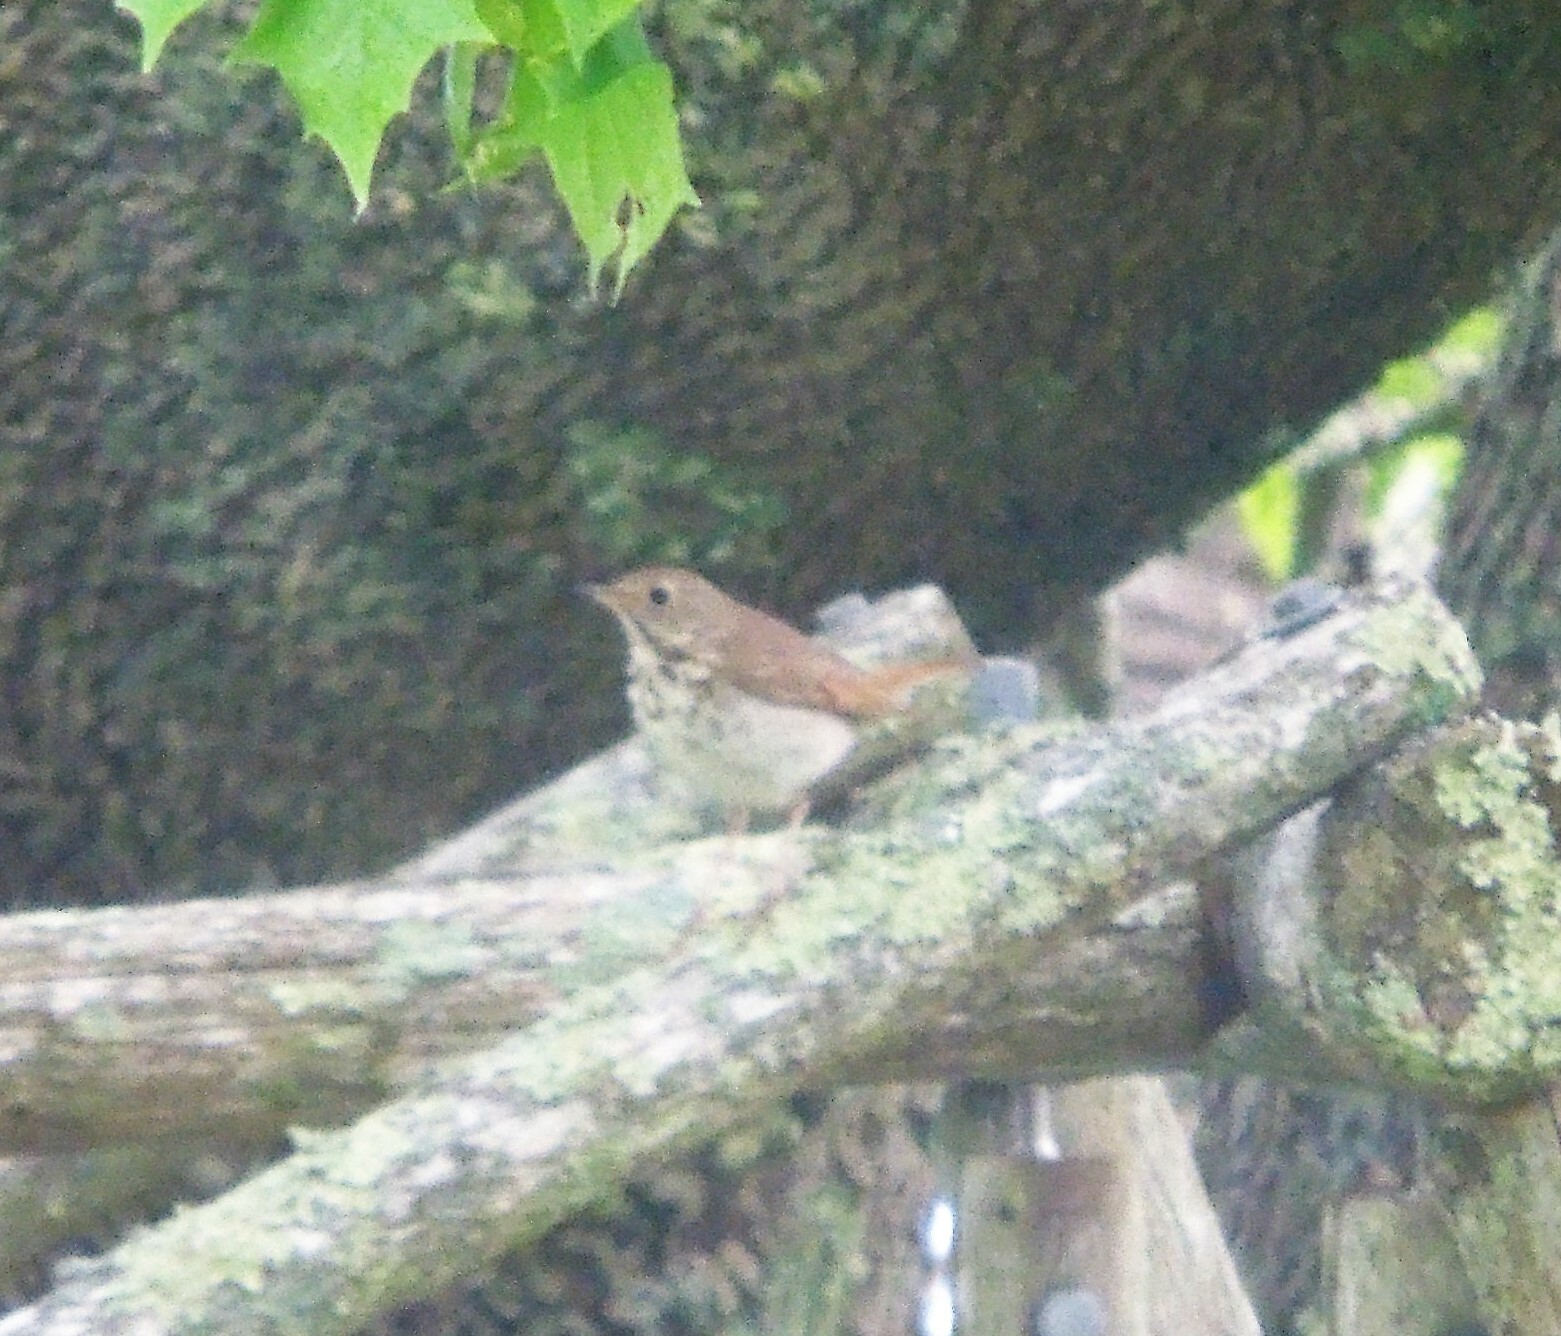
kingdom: Animalia
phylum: Chordata
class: Aves
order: Passeriformes
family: Turdidae
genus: Catharus
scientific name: Catharus guttatus
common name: Hermit thrush
